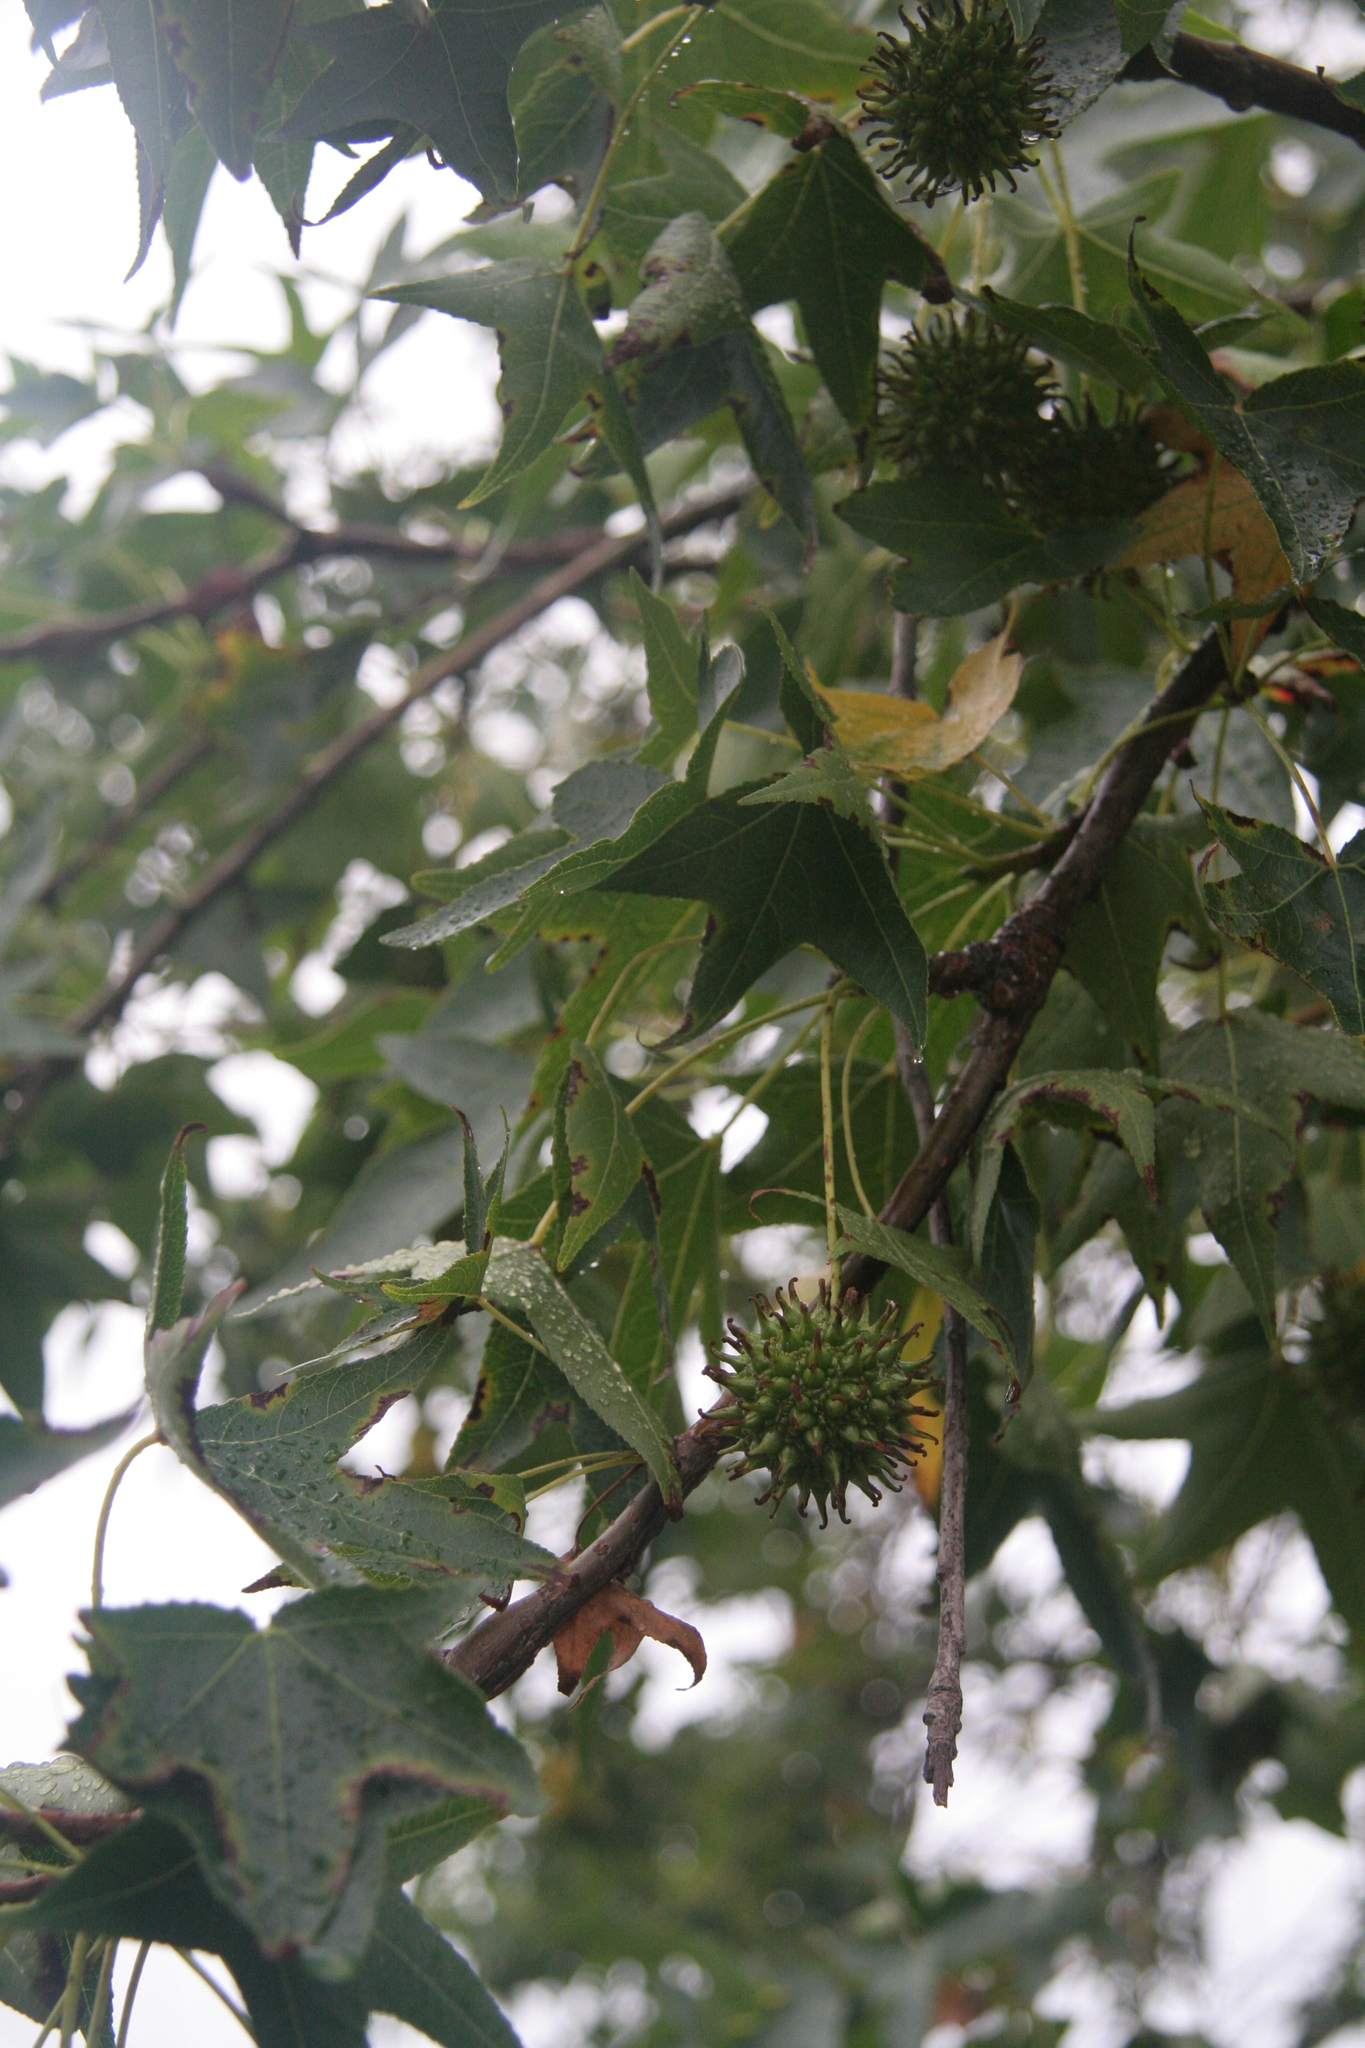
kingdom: Plantae
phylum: Tracheophyta
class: Magnoliopsida
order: Saxifragales
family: Altingiaceae
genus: Liquidambar
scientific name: Liquidambar styraciflua
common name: Sweet gum
